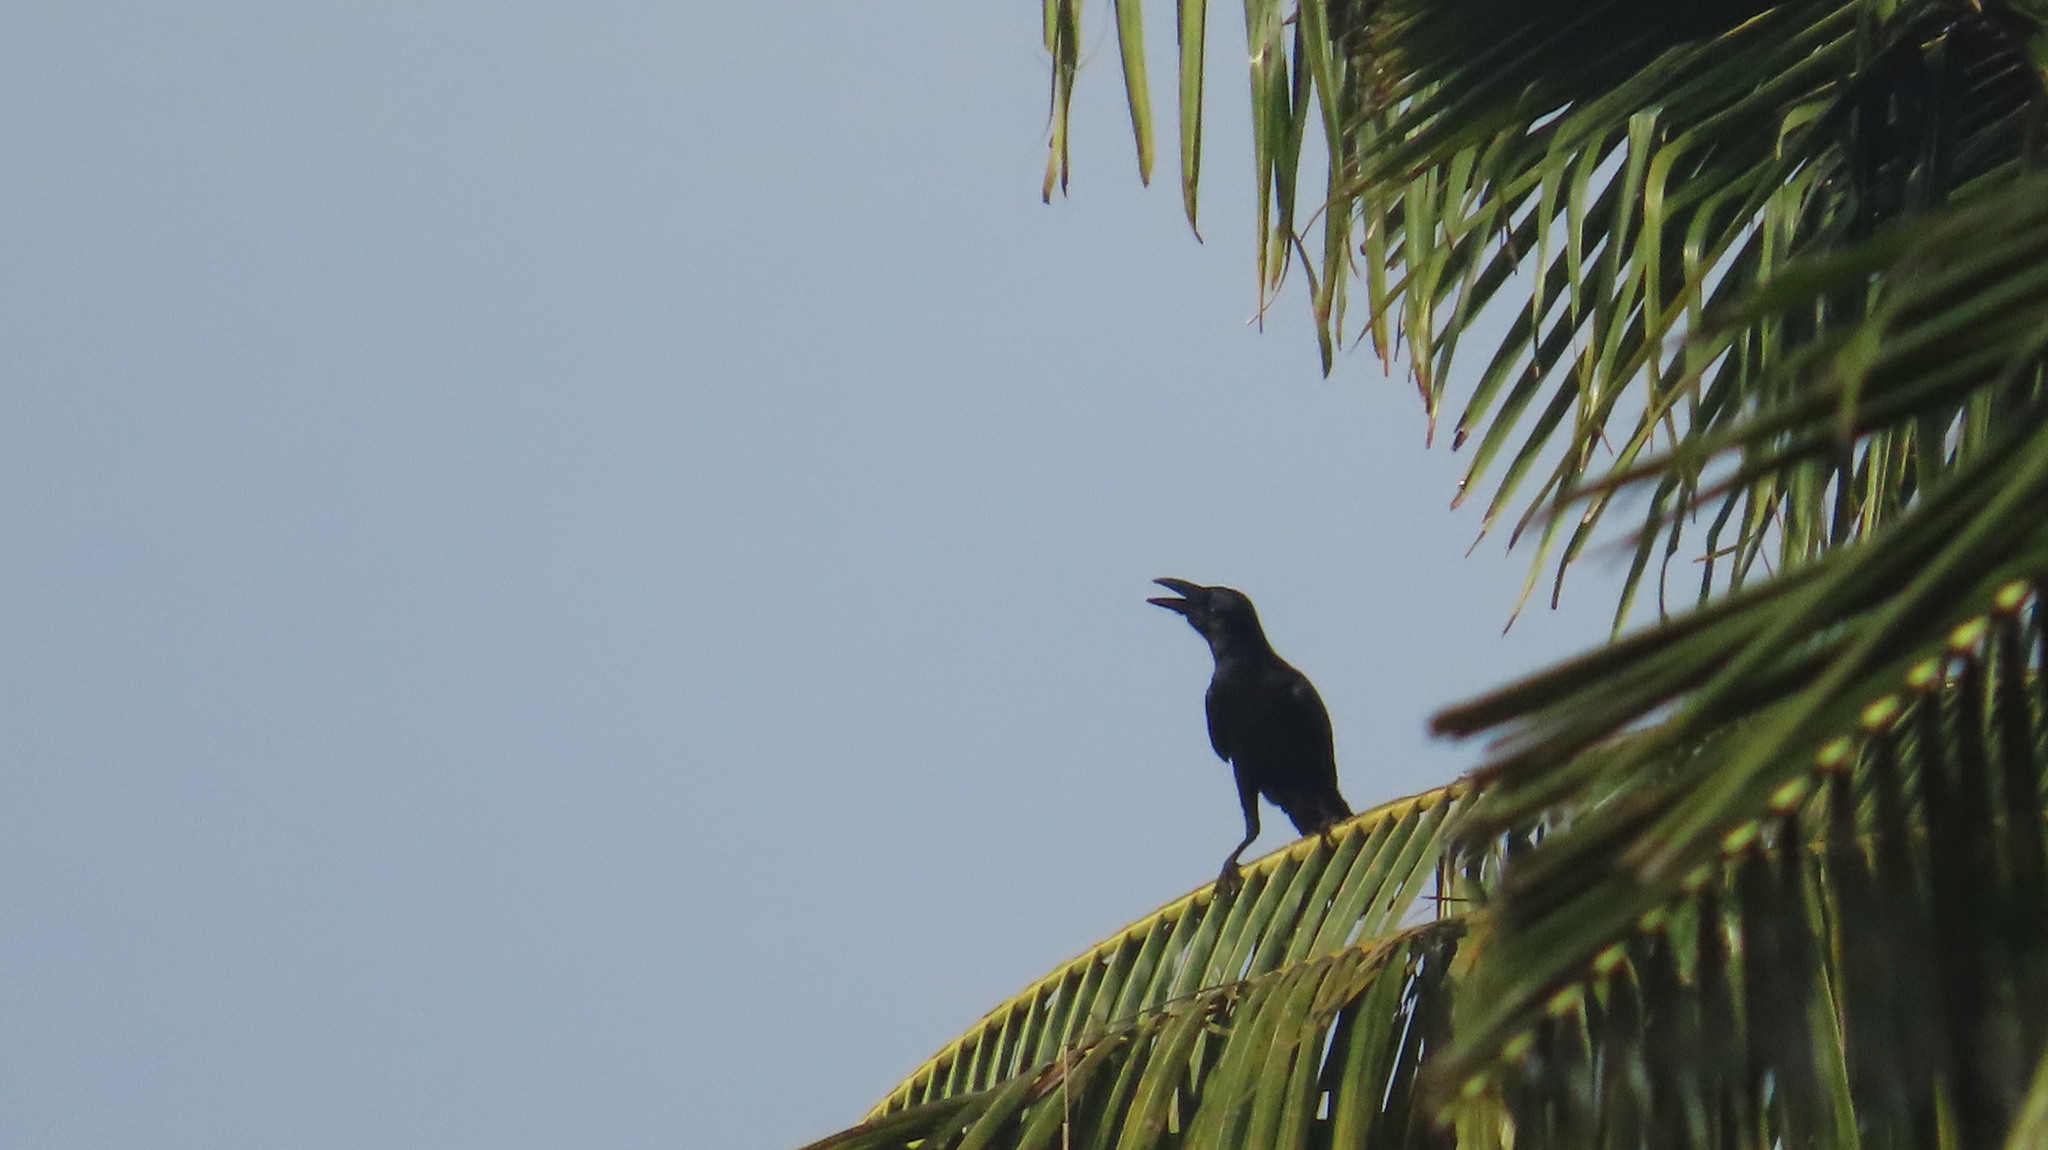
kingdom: Animalia
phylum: Chordata
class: Aves
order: Passeriformes
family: Corvidae
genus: Corvus
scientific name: Corvus macrorhynchos
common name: Large-billed crow
